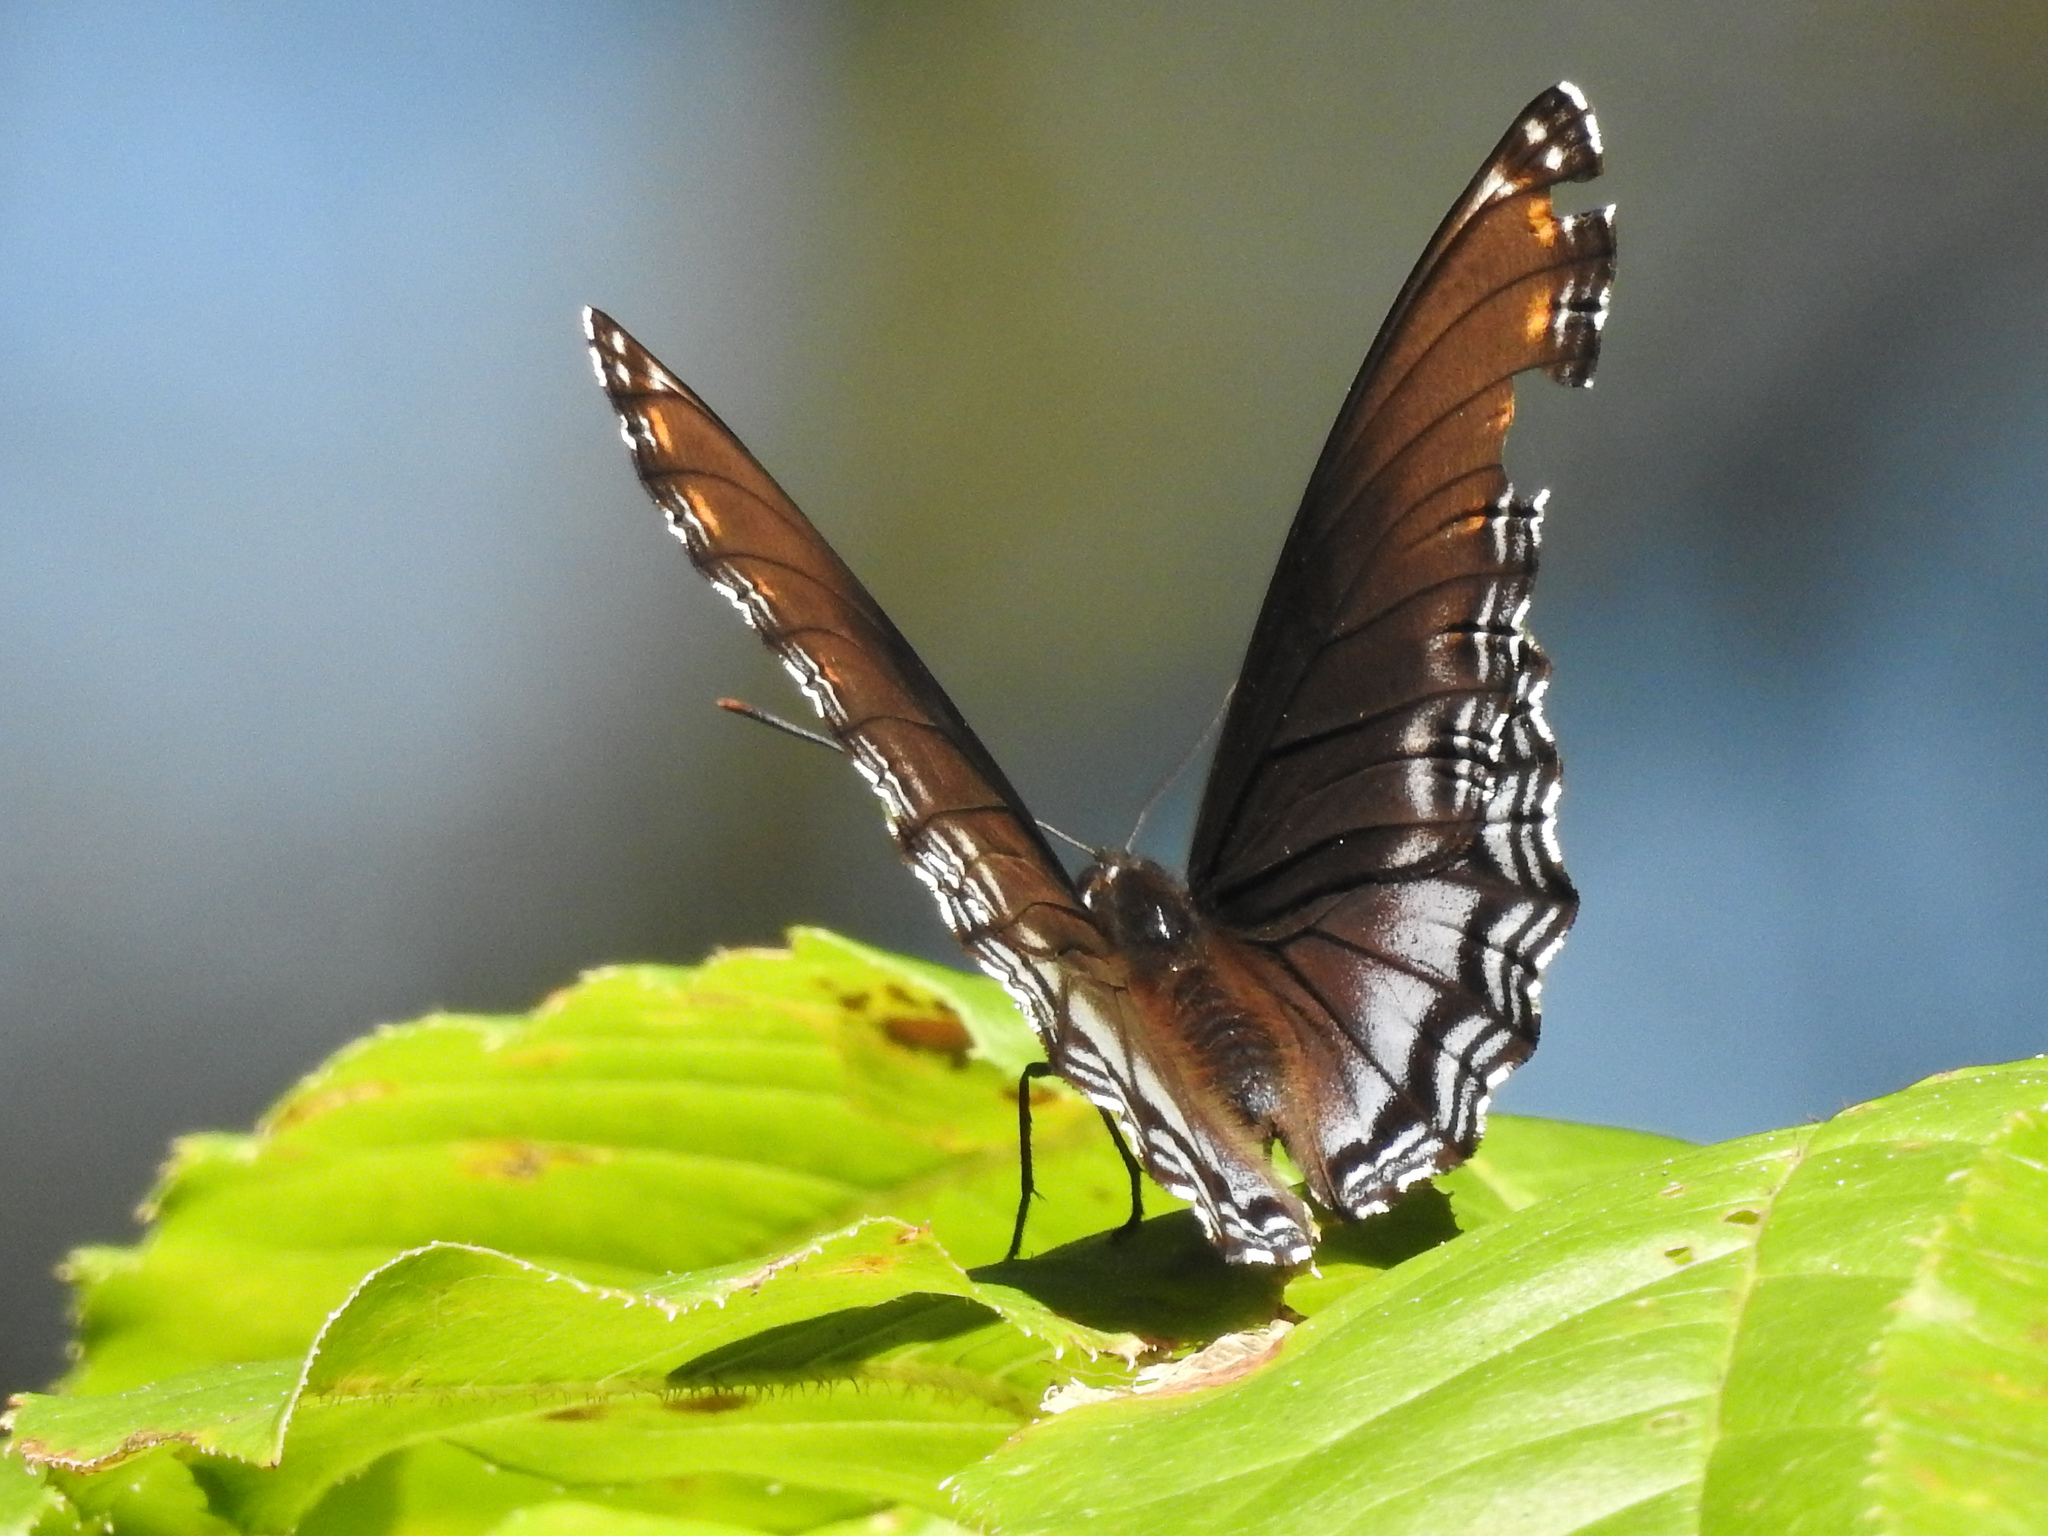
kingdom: Animalia
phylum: Arthropoda
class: Insecta
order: Lepidoptera
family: Nymphalidae
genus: Limenitis
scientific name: Limenitis astyanax
